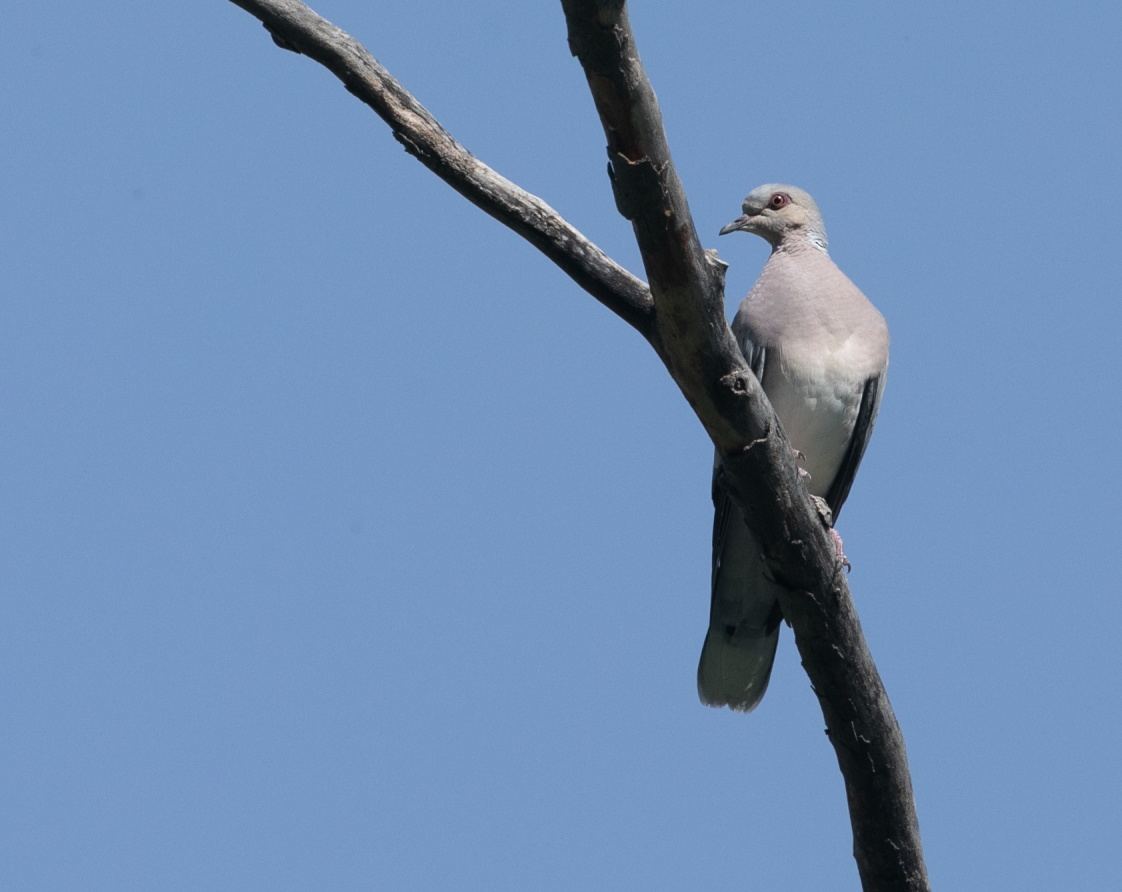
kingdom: Animalia
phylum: Chordata
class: Aves
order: Columbiformes
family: Columbidae
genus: Streptopelia
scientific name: Streptopelia turtur
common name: European turtle dove
